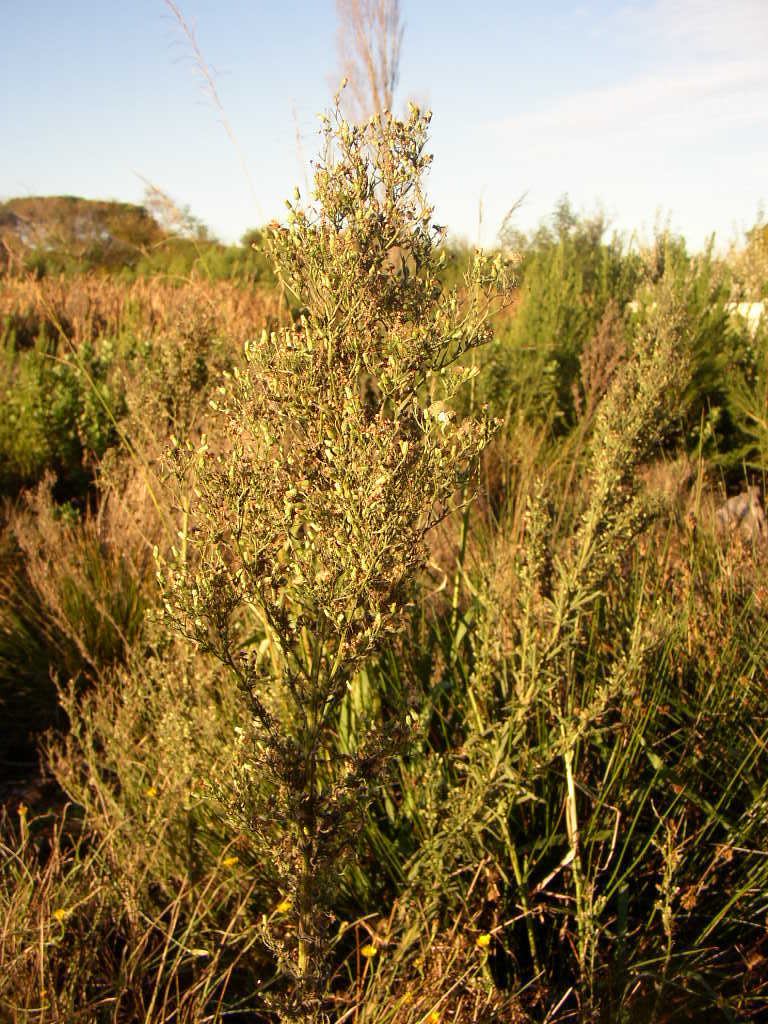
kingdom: Plantae
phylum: Tracheophyta
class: Magnoliopsida
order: Proteales
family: Proteaceae
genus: Leucadendron
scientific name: Leucadendron macowanii
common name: Acacia-leaf conebush
